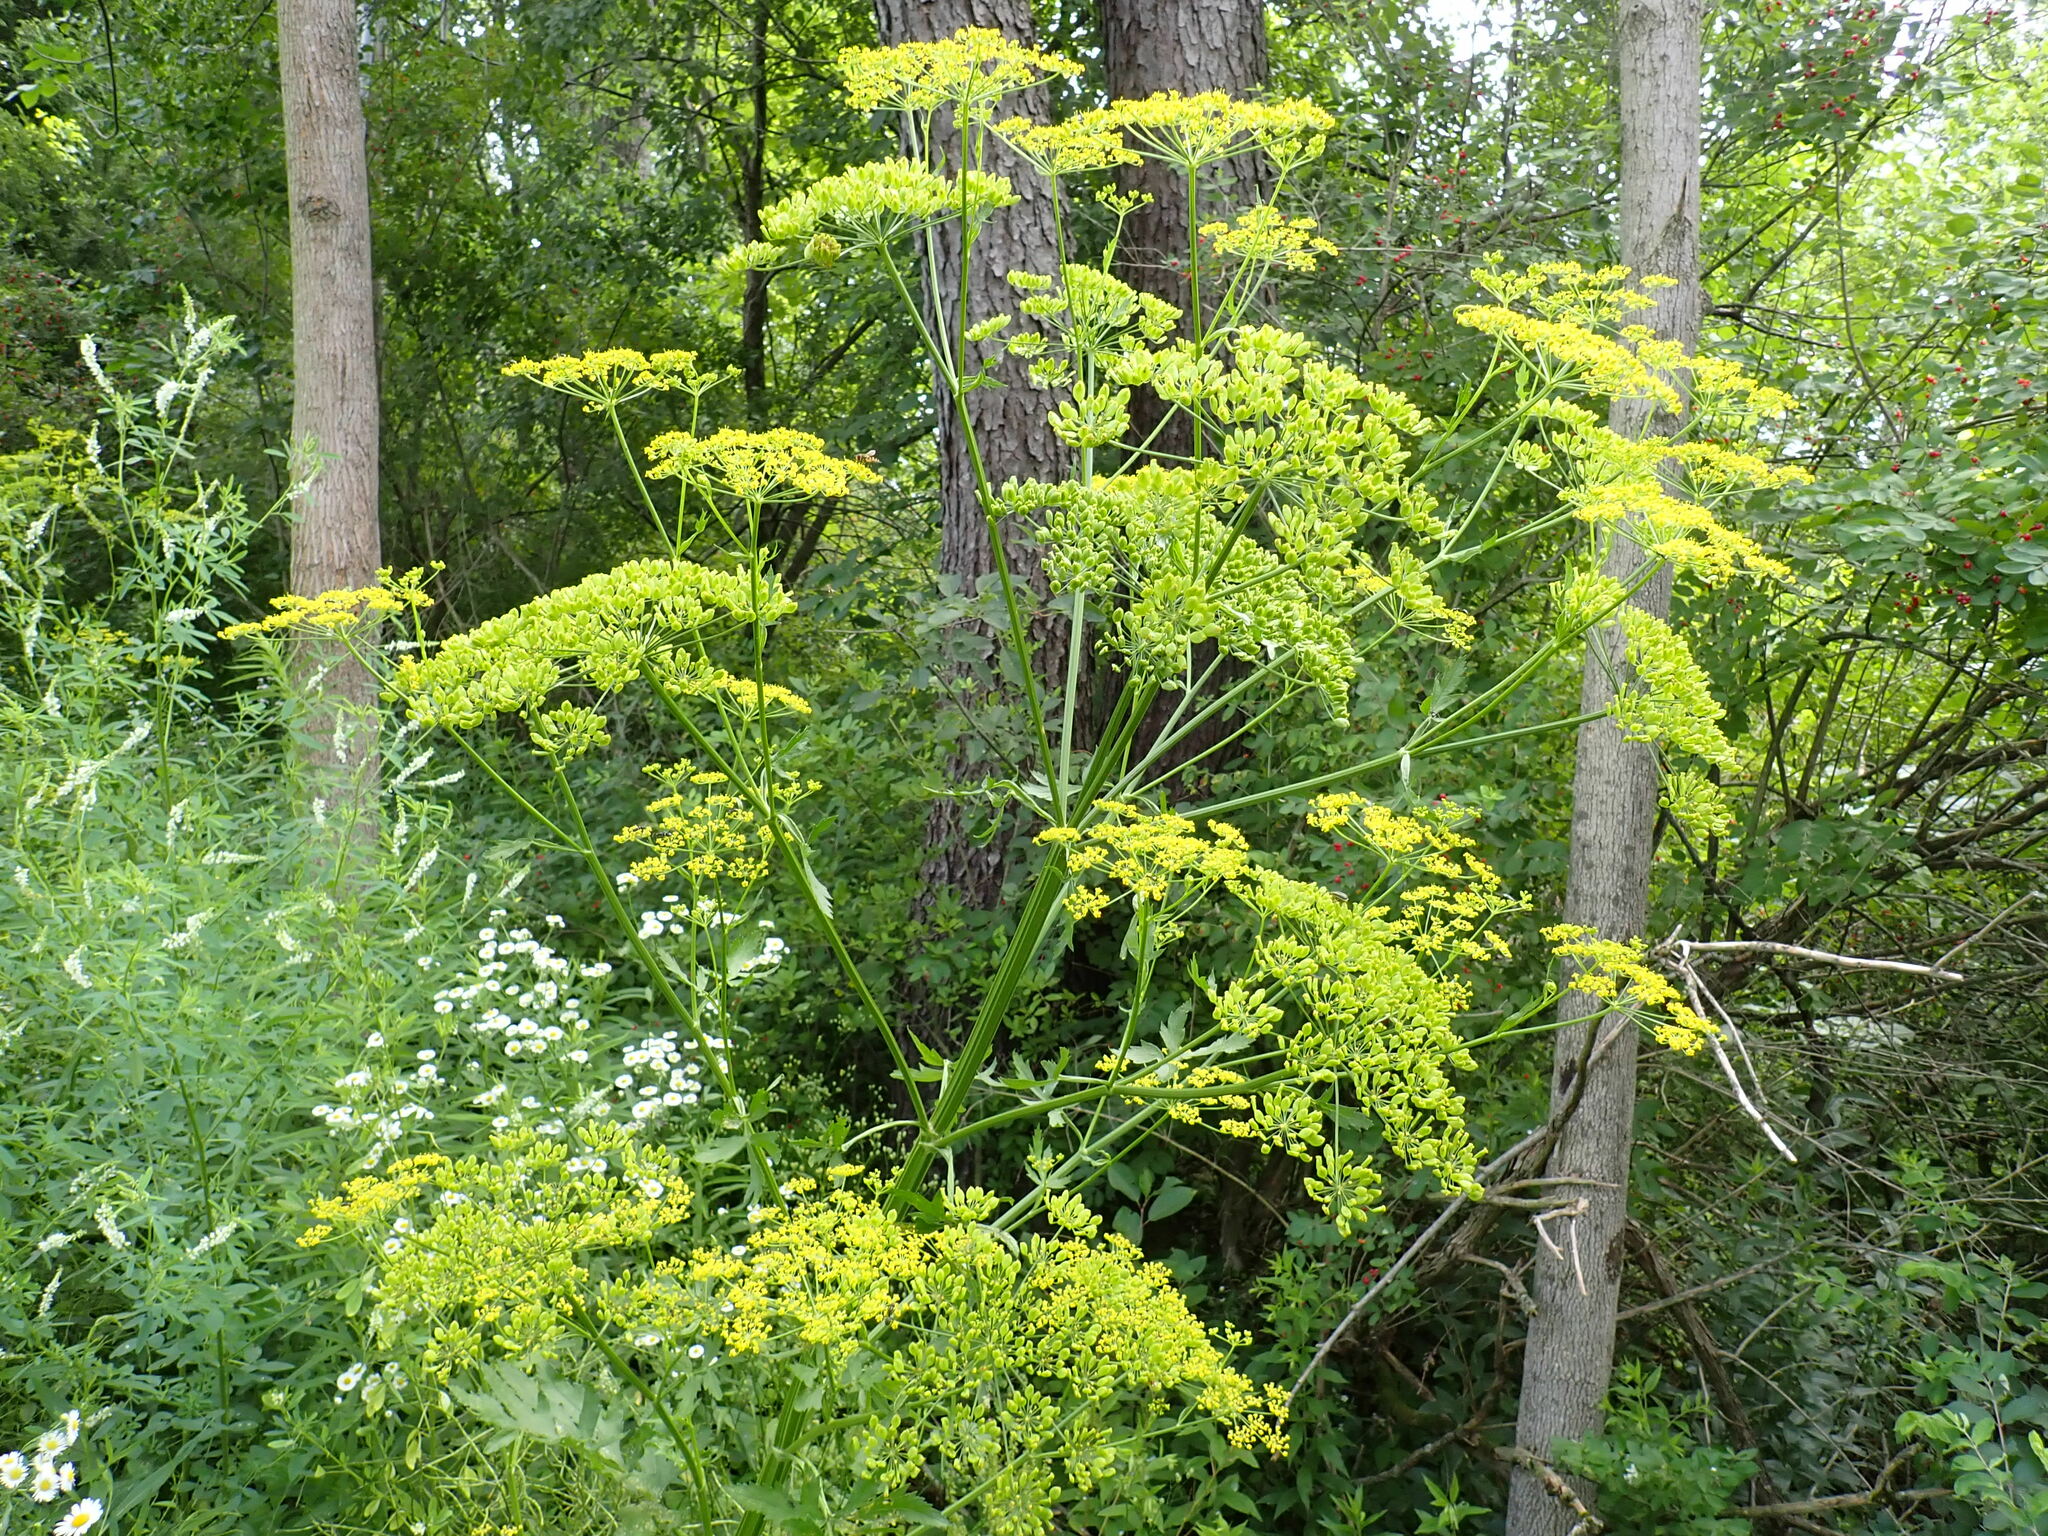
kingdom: Plantae
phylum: Tracheophyta
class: Magnoliopsida
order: Apiales
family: Apiaceae
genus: Pastinaca
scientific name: Pastinaca sativa
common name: Wild parsnip
